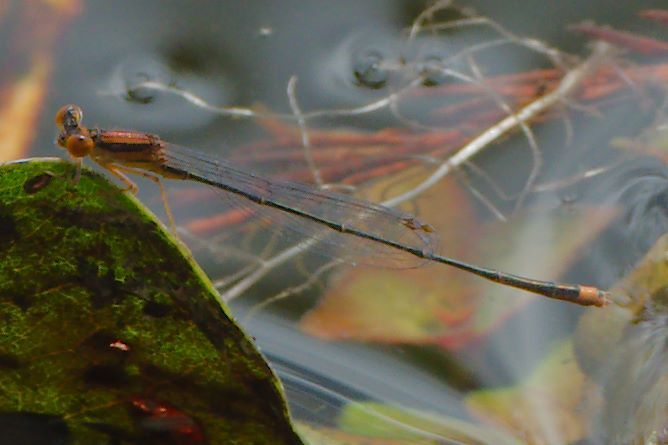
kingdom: Animalia
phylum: Arthropoda
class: Insecta
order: Odonata
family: Coenagrionidae
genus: Enallagma
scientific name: Enallagma pollutum
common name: Florida bluet
